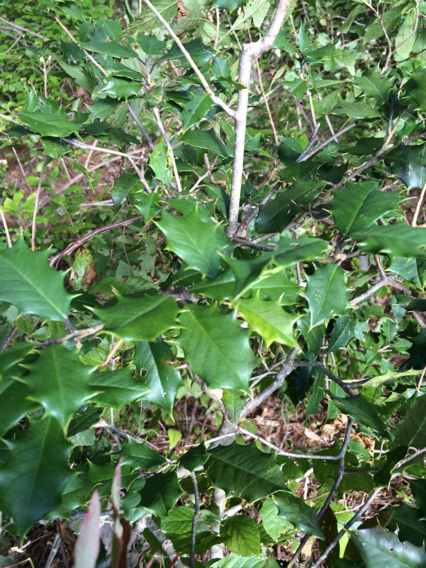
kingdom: Plantae
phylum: Tracheophyta
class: Magnoliopsida
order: Aquifoliales
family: Aquifoliaceae
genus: Ilex
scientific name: Ilex opaca
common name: American holly
